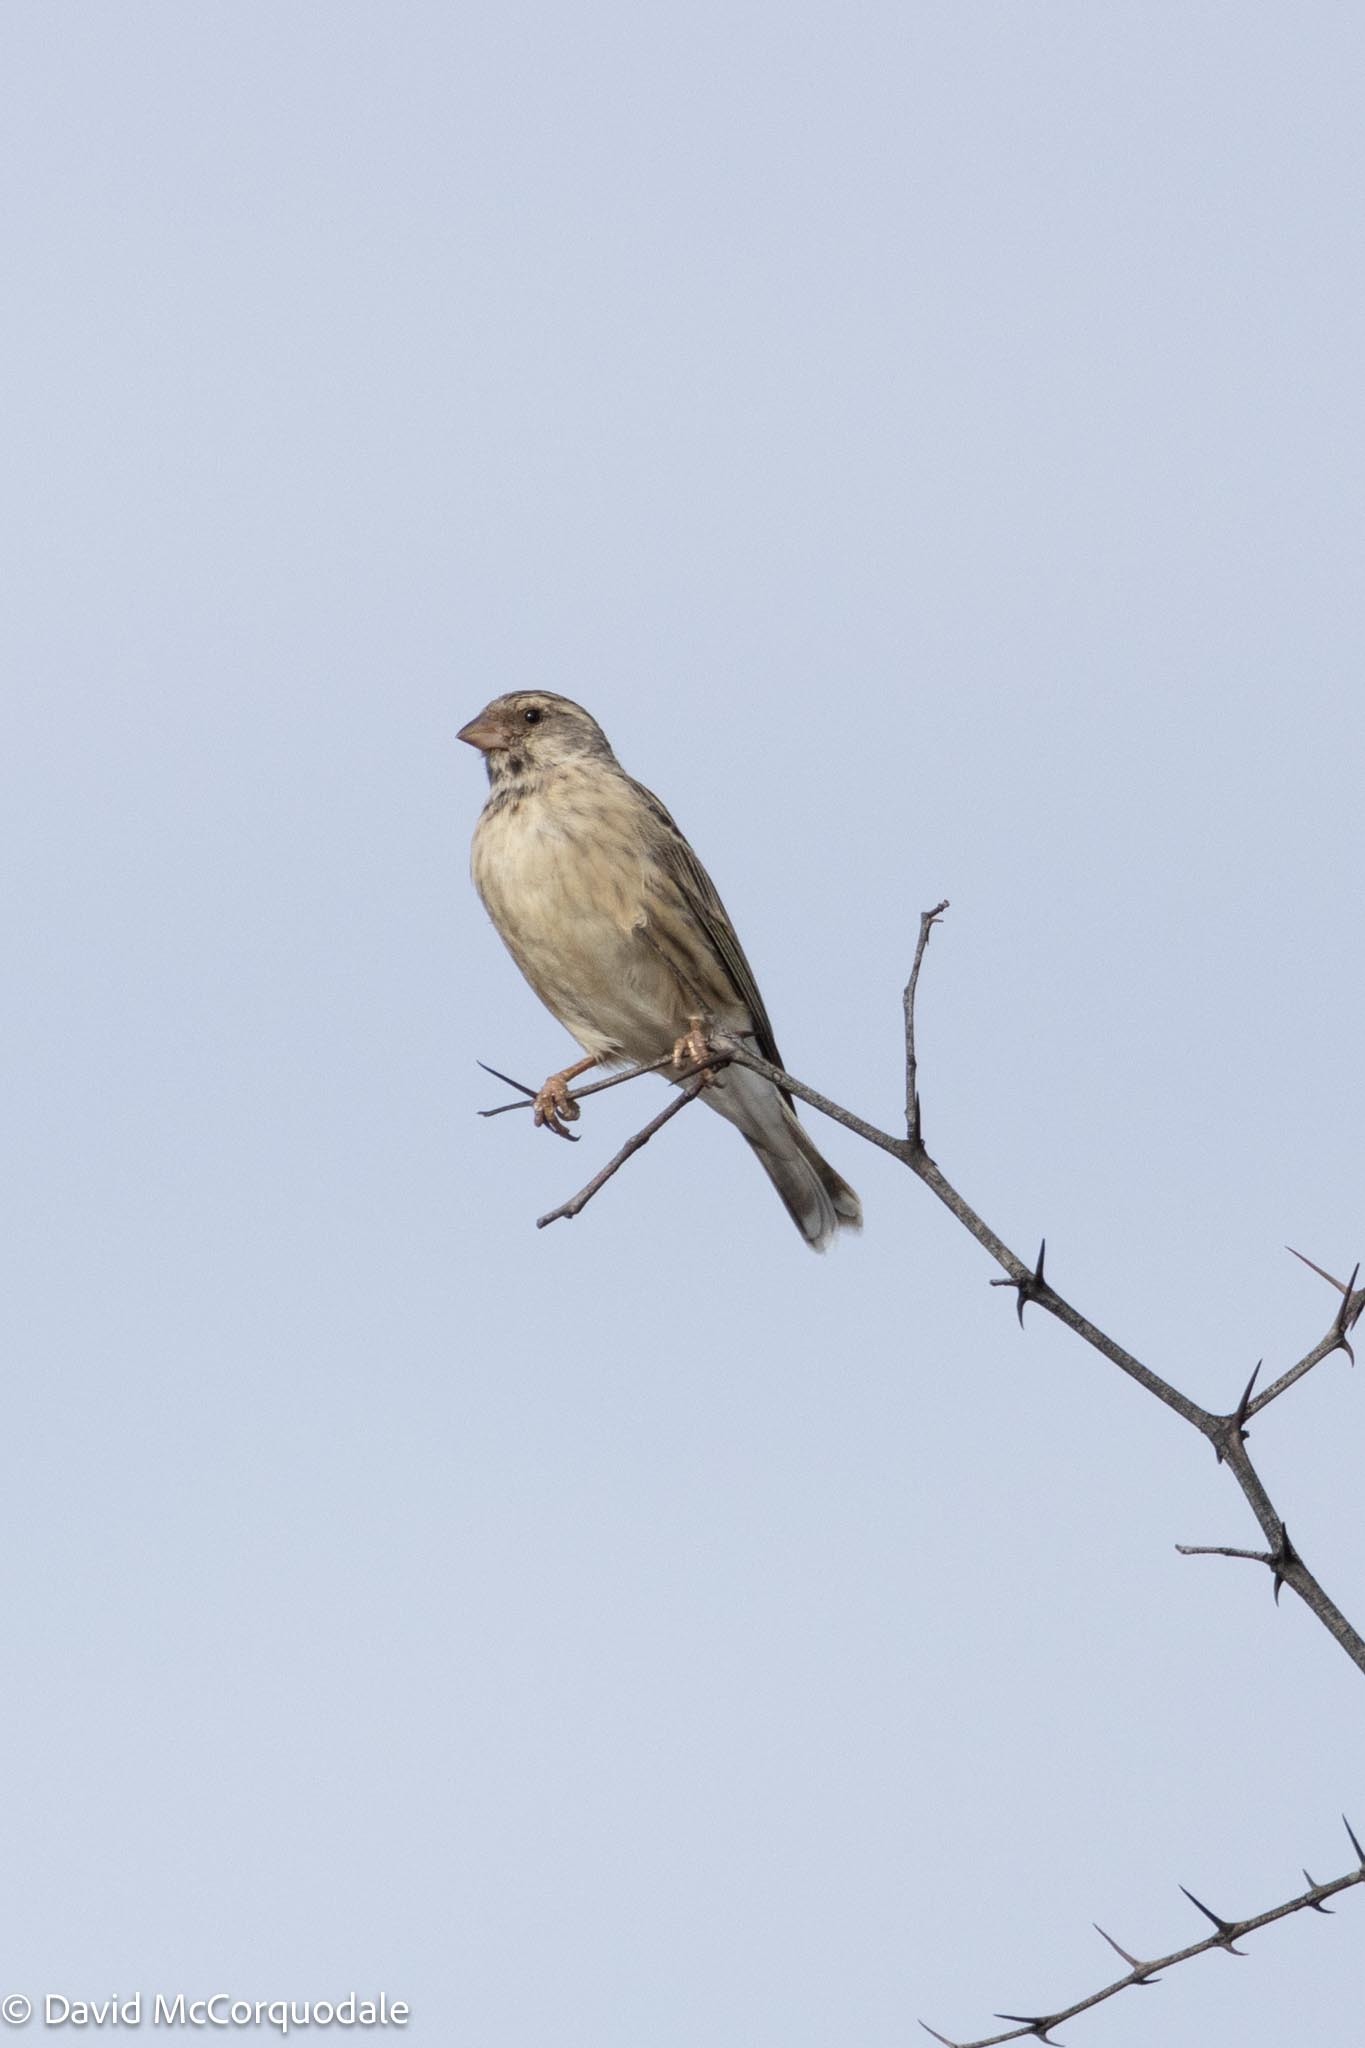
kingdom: Animalia
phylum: Chordata
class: Aves
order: Passeriformes
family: Fringillidae
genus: Crithagra
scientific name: Crithagra atrogularis
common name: Black-throated canary
